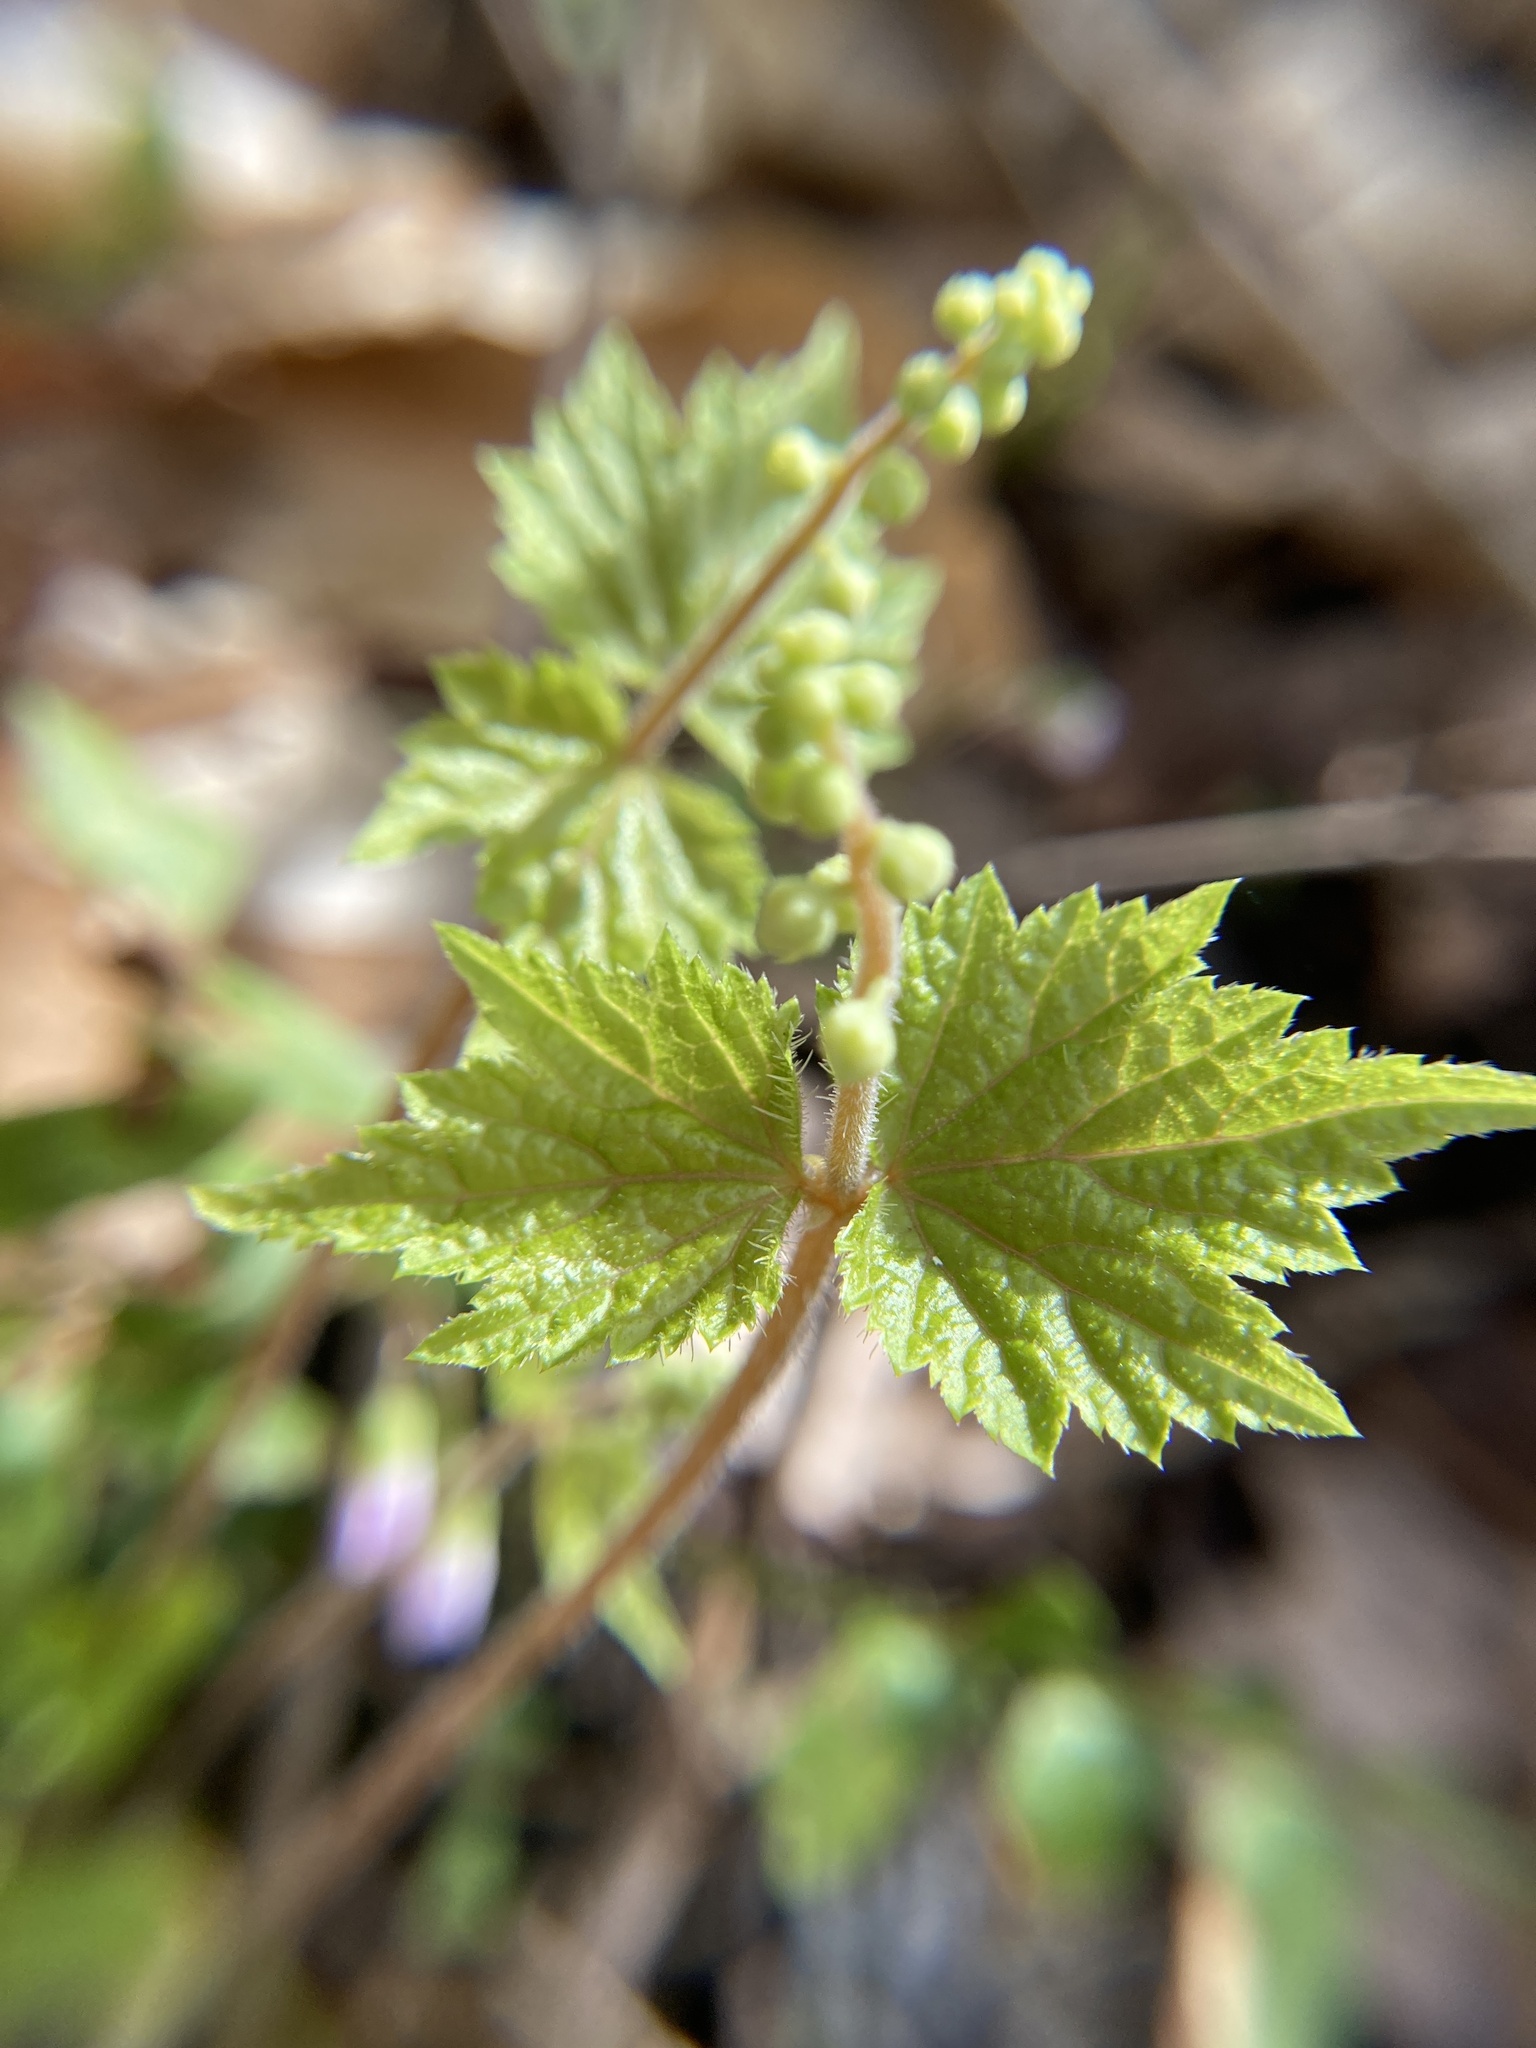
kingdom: Plantae
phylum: Tracheophyta
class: Magnoliopsida
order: Saxifragales
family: Saxifragaceae
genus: Mitella
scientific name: Mitella diphylla
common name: Coolwort
